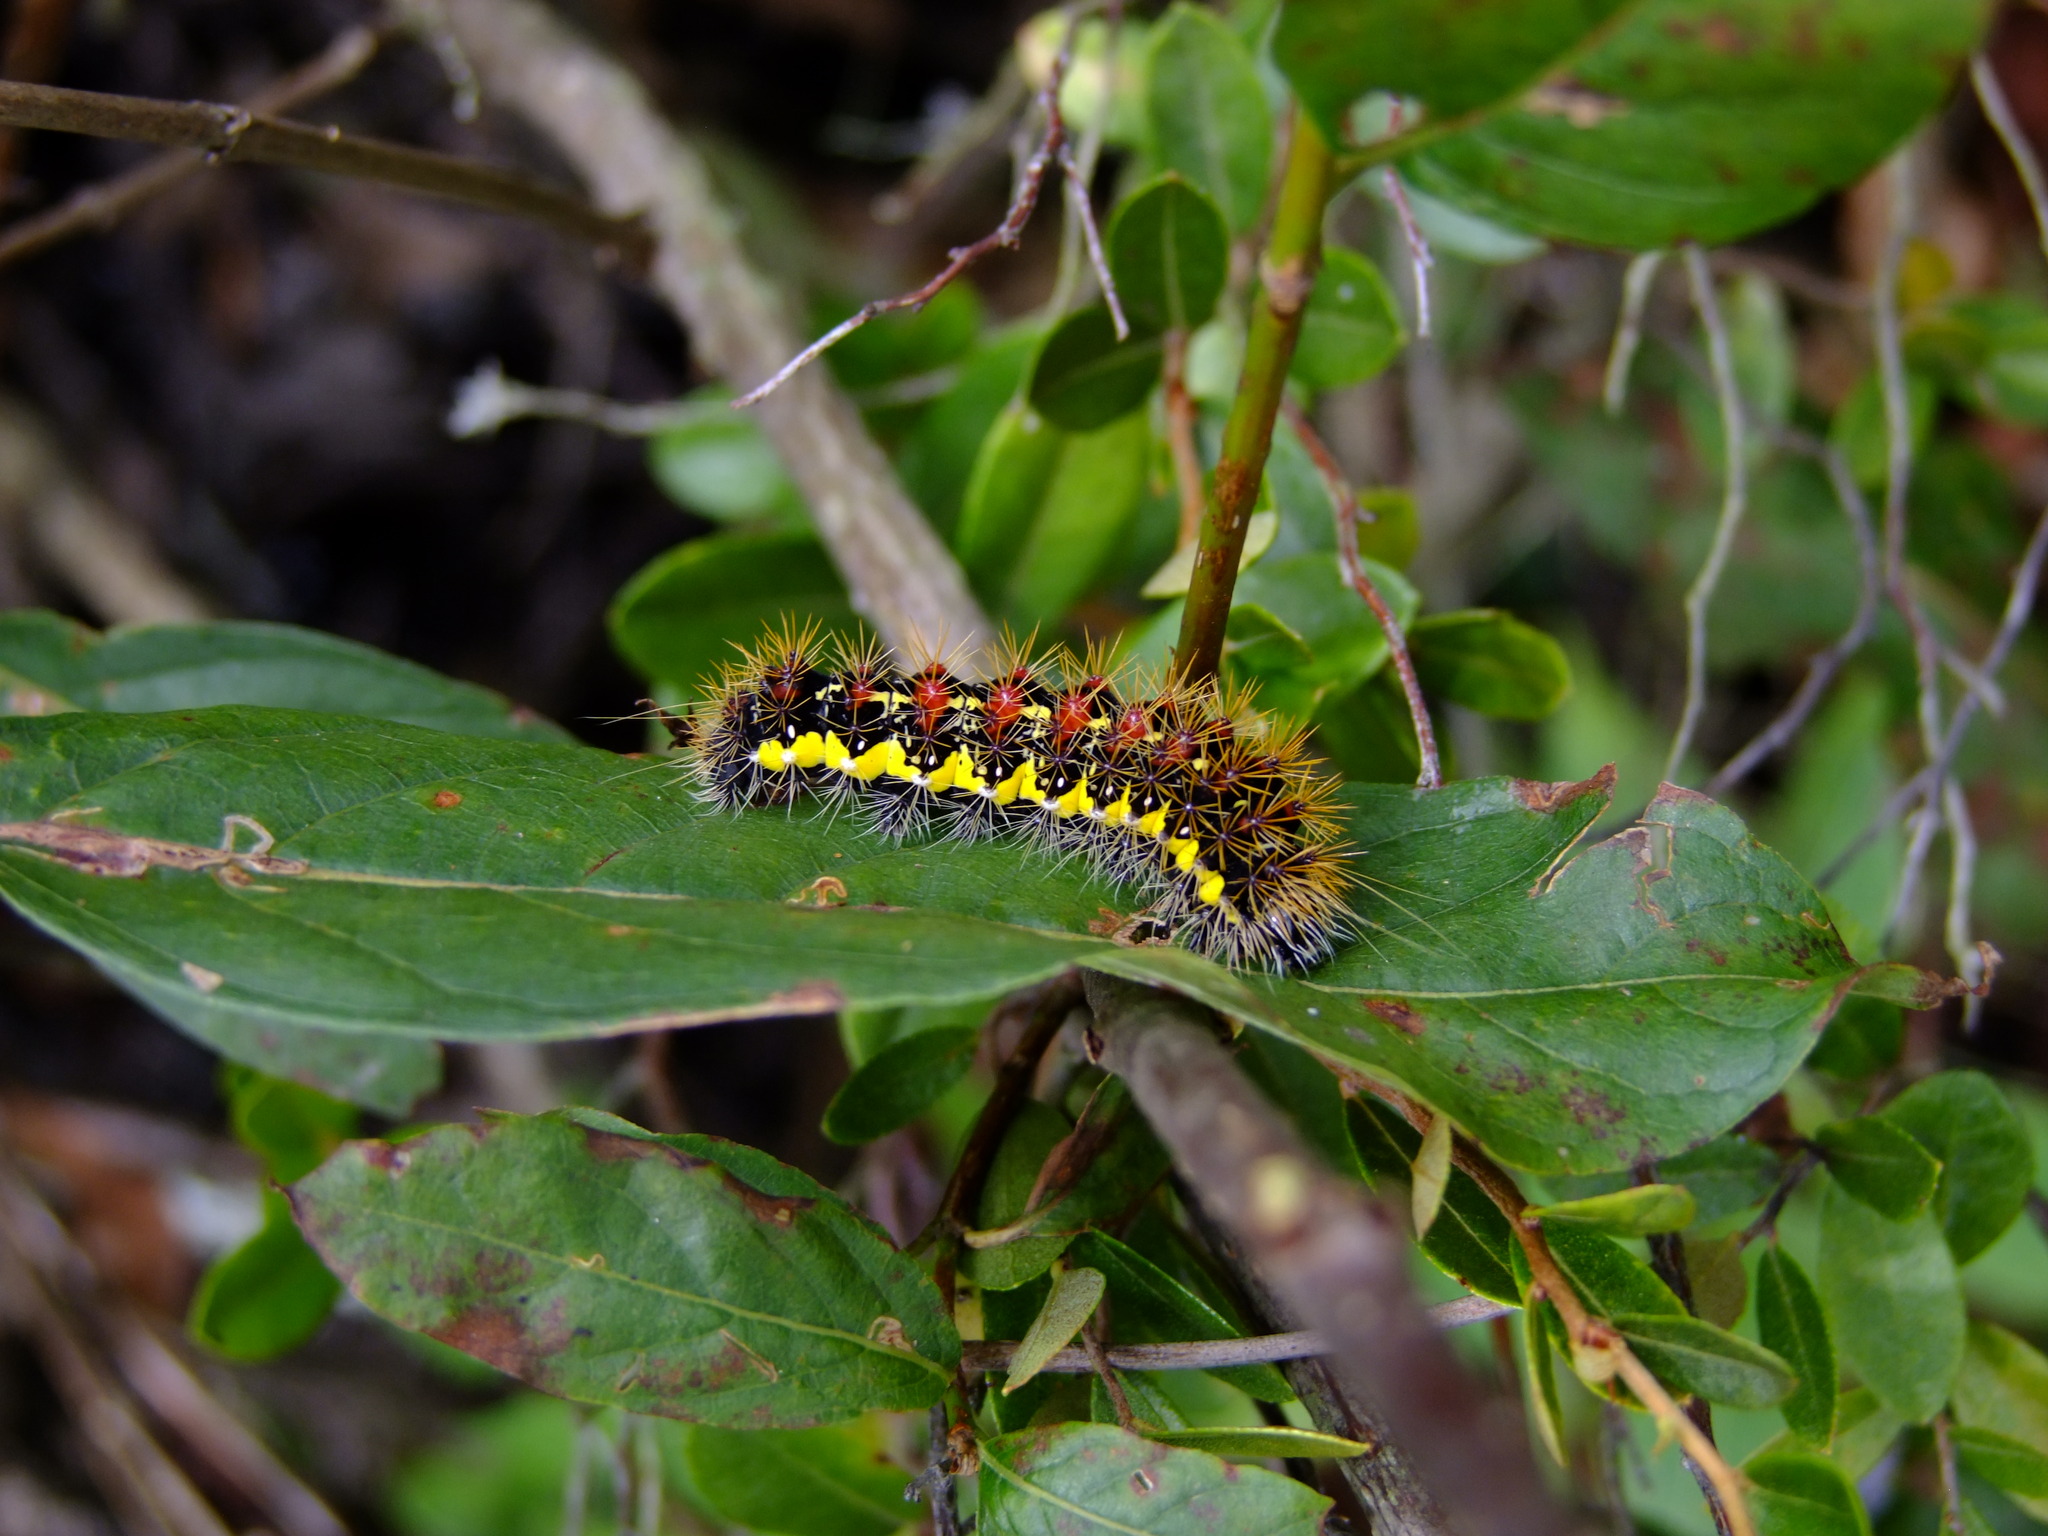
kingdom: Animalia
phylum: Arthropoda
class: Insecta
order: Lepidoptera
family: Noctuidae
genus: Acronicta
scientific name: Acronicta oblinita
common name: Smeared dagger
